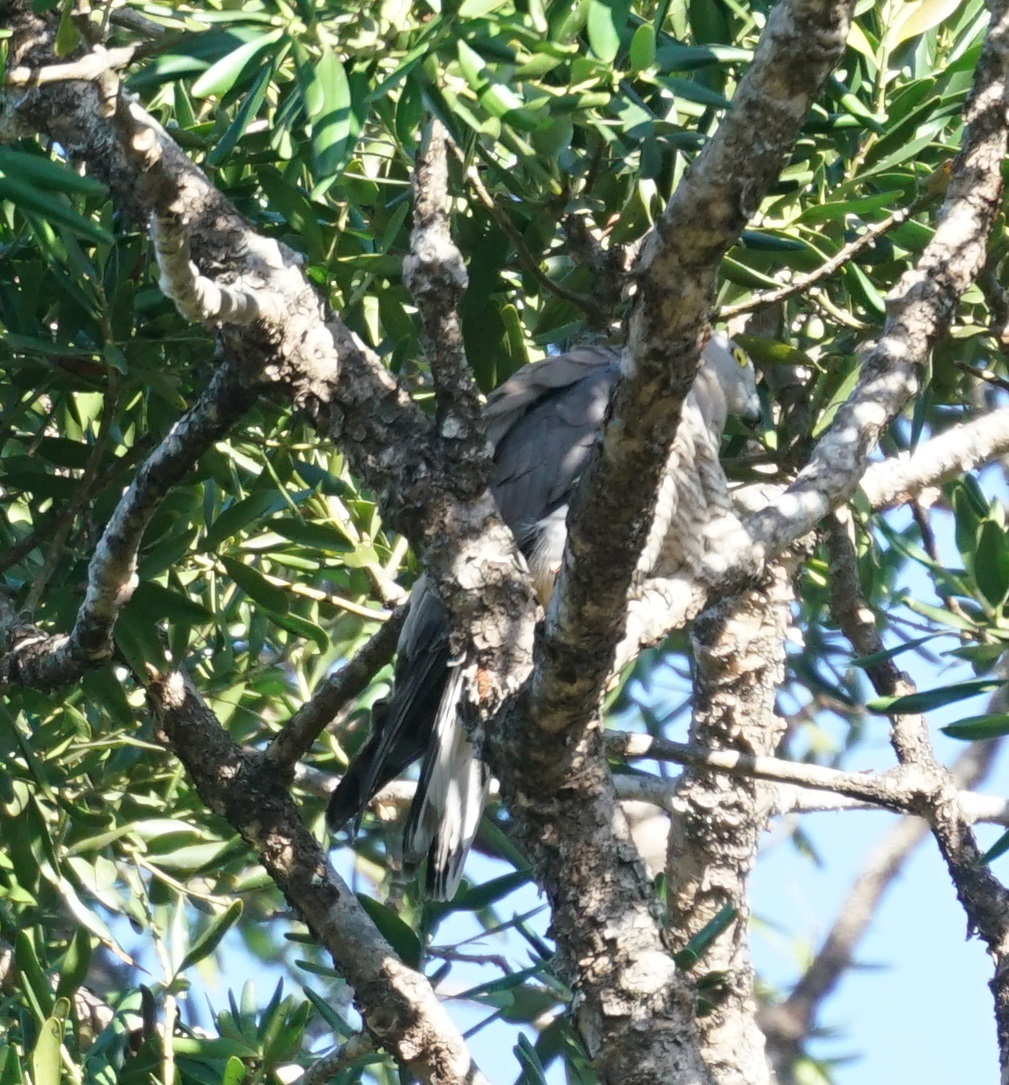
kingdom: Animalia
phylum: Chordata
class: Aves
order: Accipitriformes
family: Accipitridae
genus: Aviceda
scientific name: Aviceda subcristata
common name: Pacific baza
